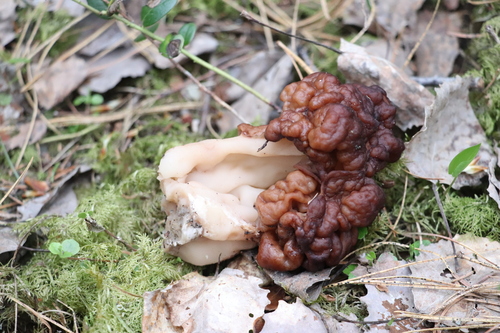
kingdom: Fungi
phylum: Ascomycota
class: Pezizomycetes
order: Pezizales
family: Discinaceae
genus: Gyromitra
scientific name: Gyromitra esculenta
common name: False morel
